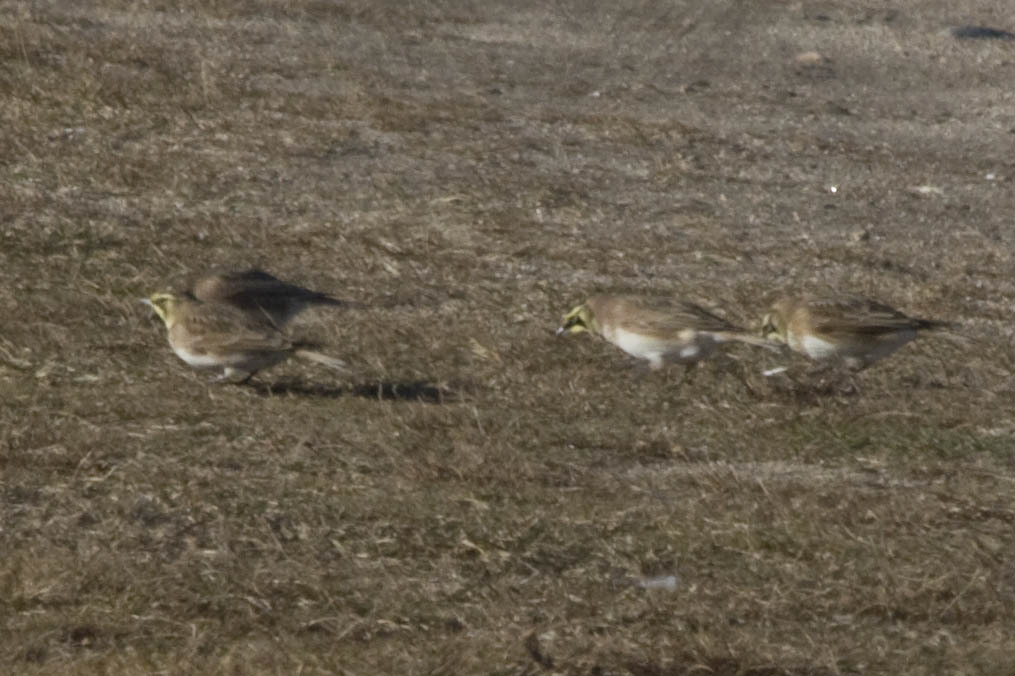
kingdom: Animalia
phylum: Chordata
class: Aves
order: Passeriformes
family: Alaudidae
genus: Eremophila
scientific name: Eremophila alpestris
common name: Horned lark
